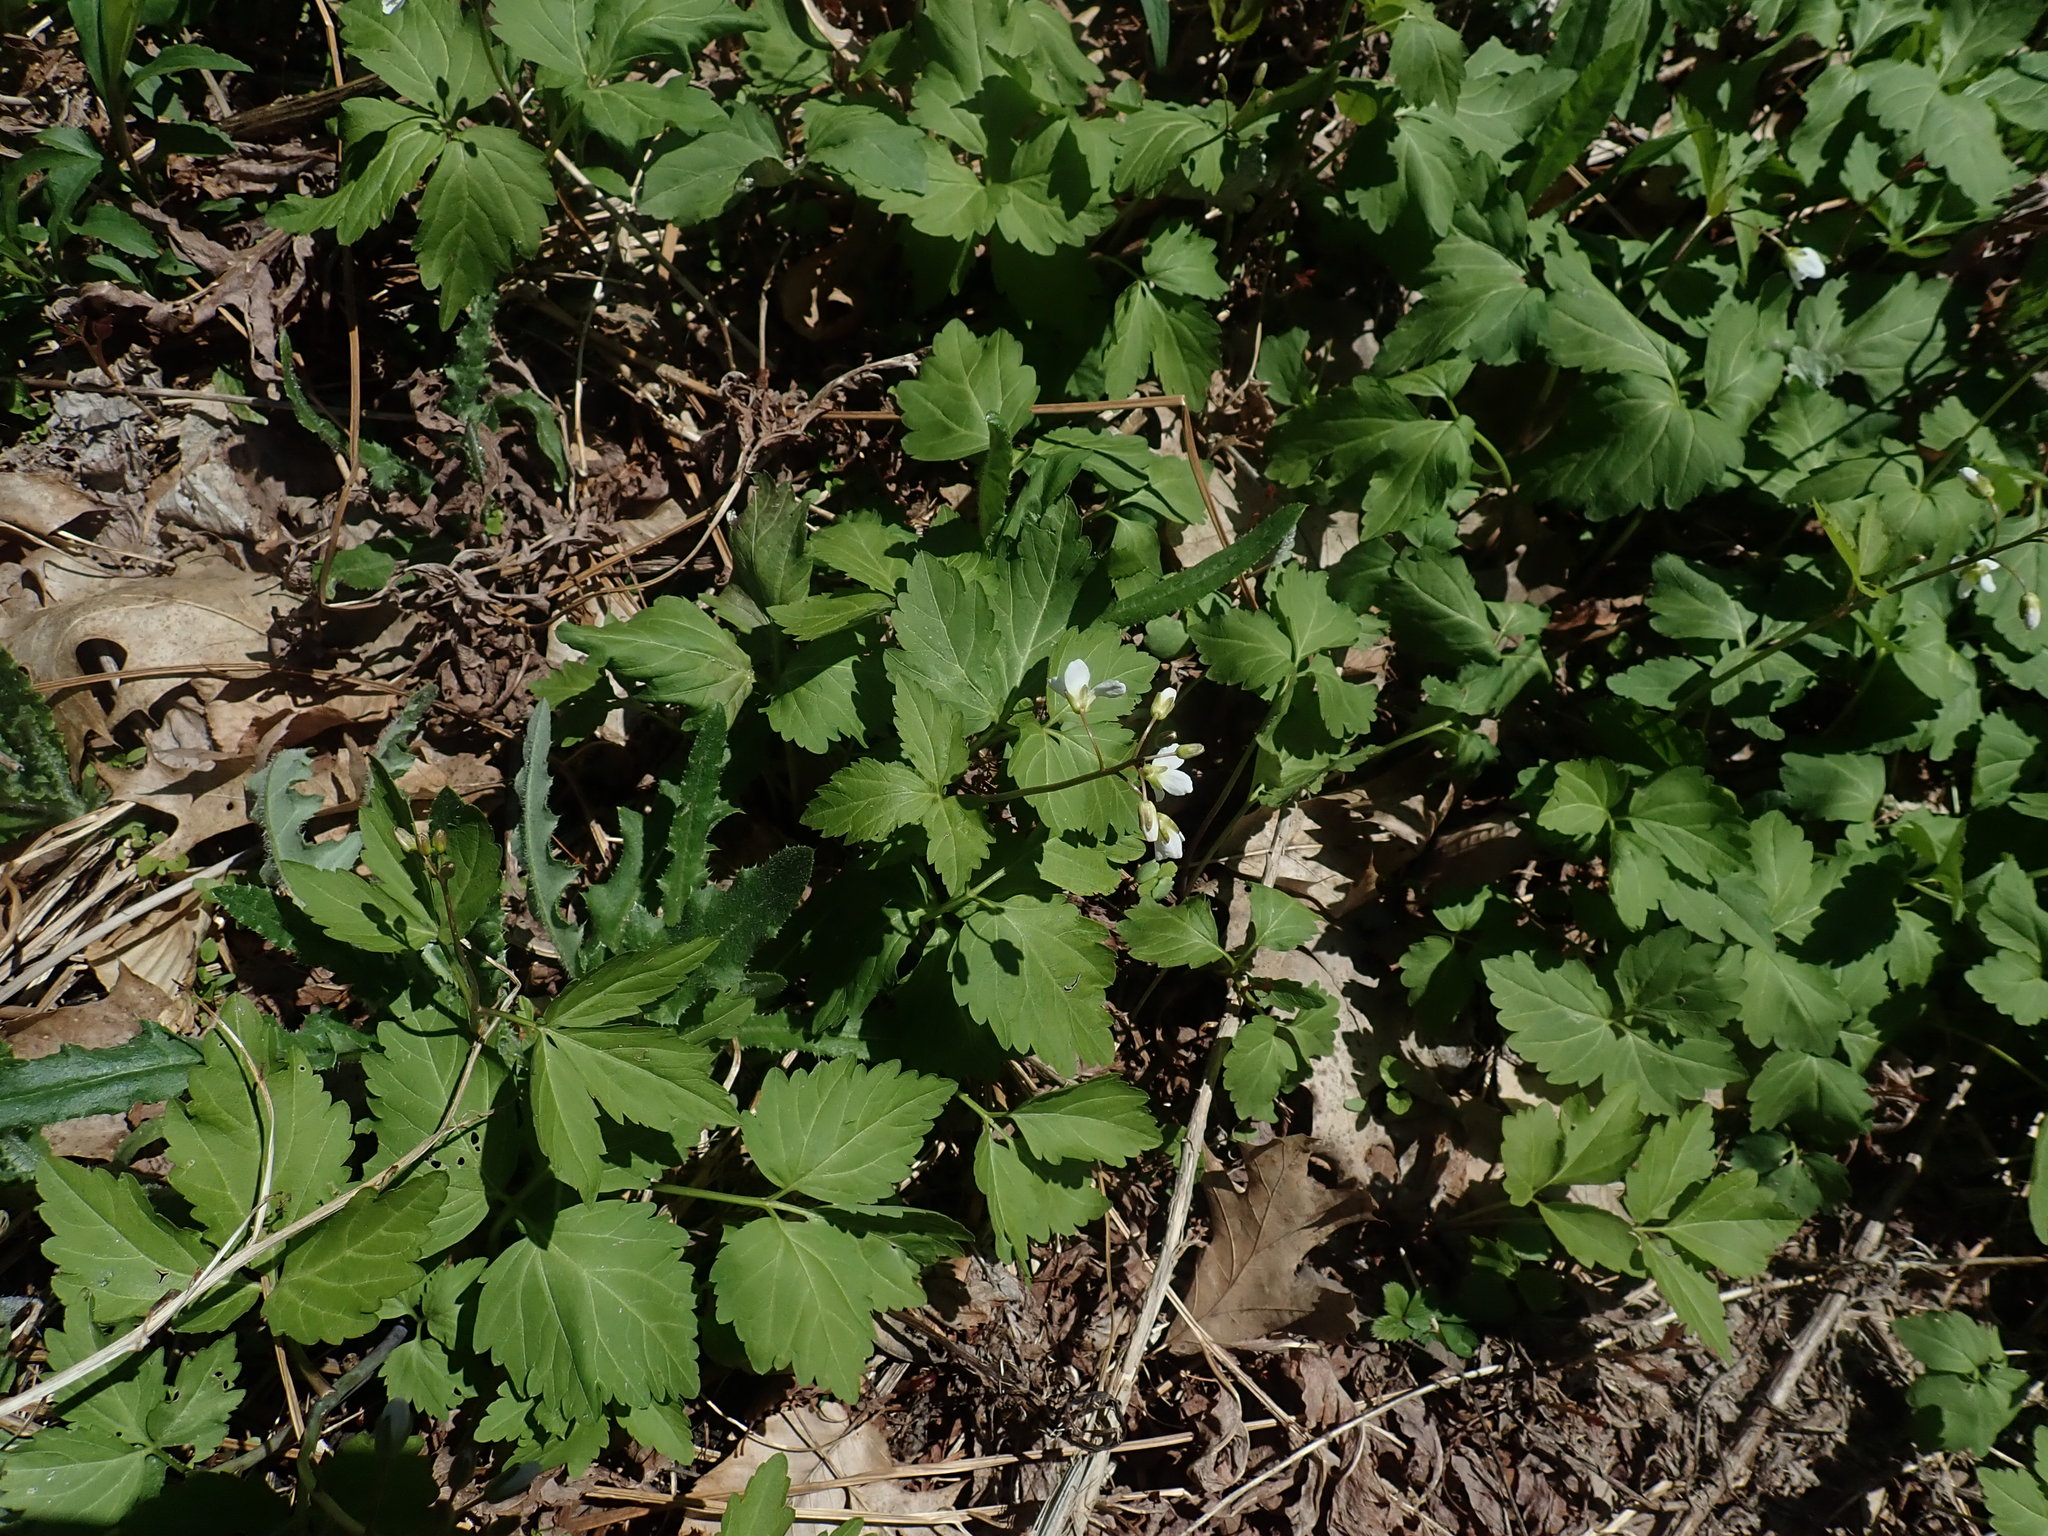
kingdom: Plantae
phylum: Tracheophyta
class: Magnoliopsida
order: Brassicales
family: Brassicaceae
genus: Cardamine
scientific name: Cardamine diphylla
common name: Broad-leaved toothwort
